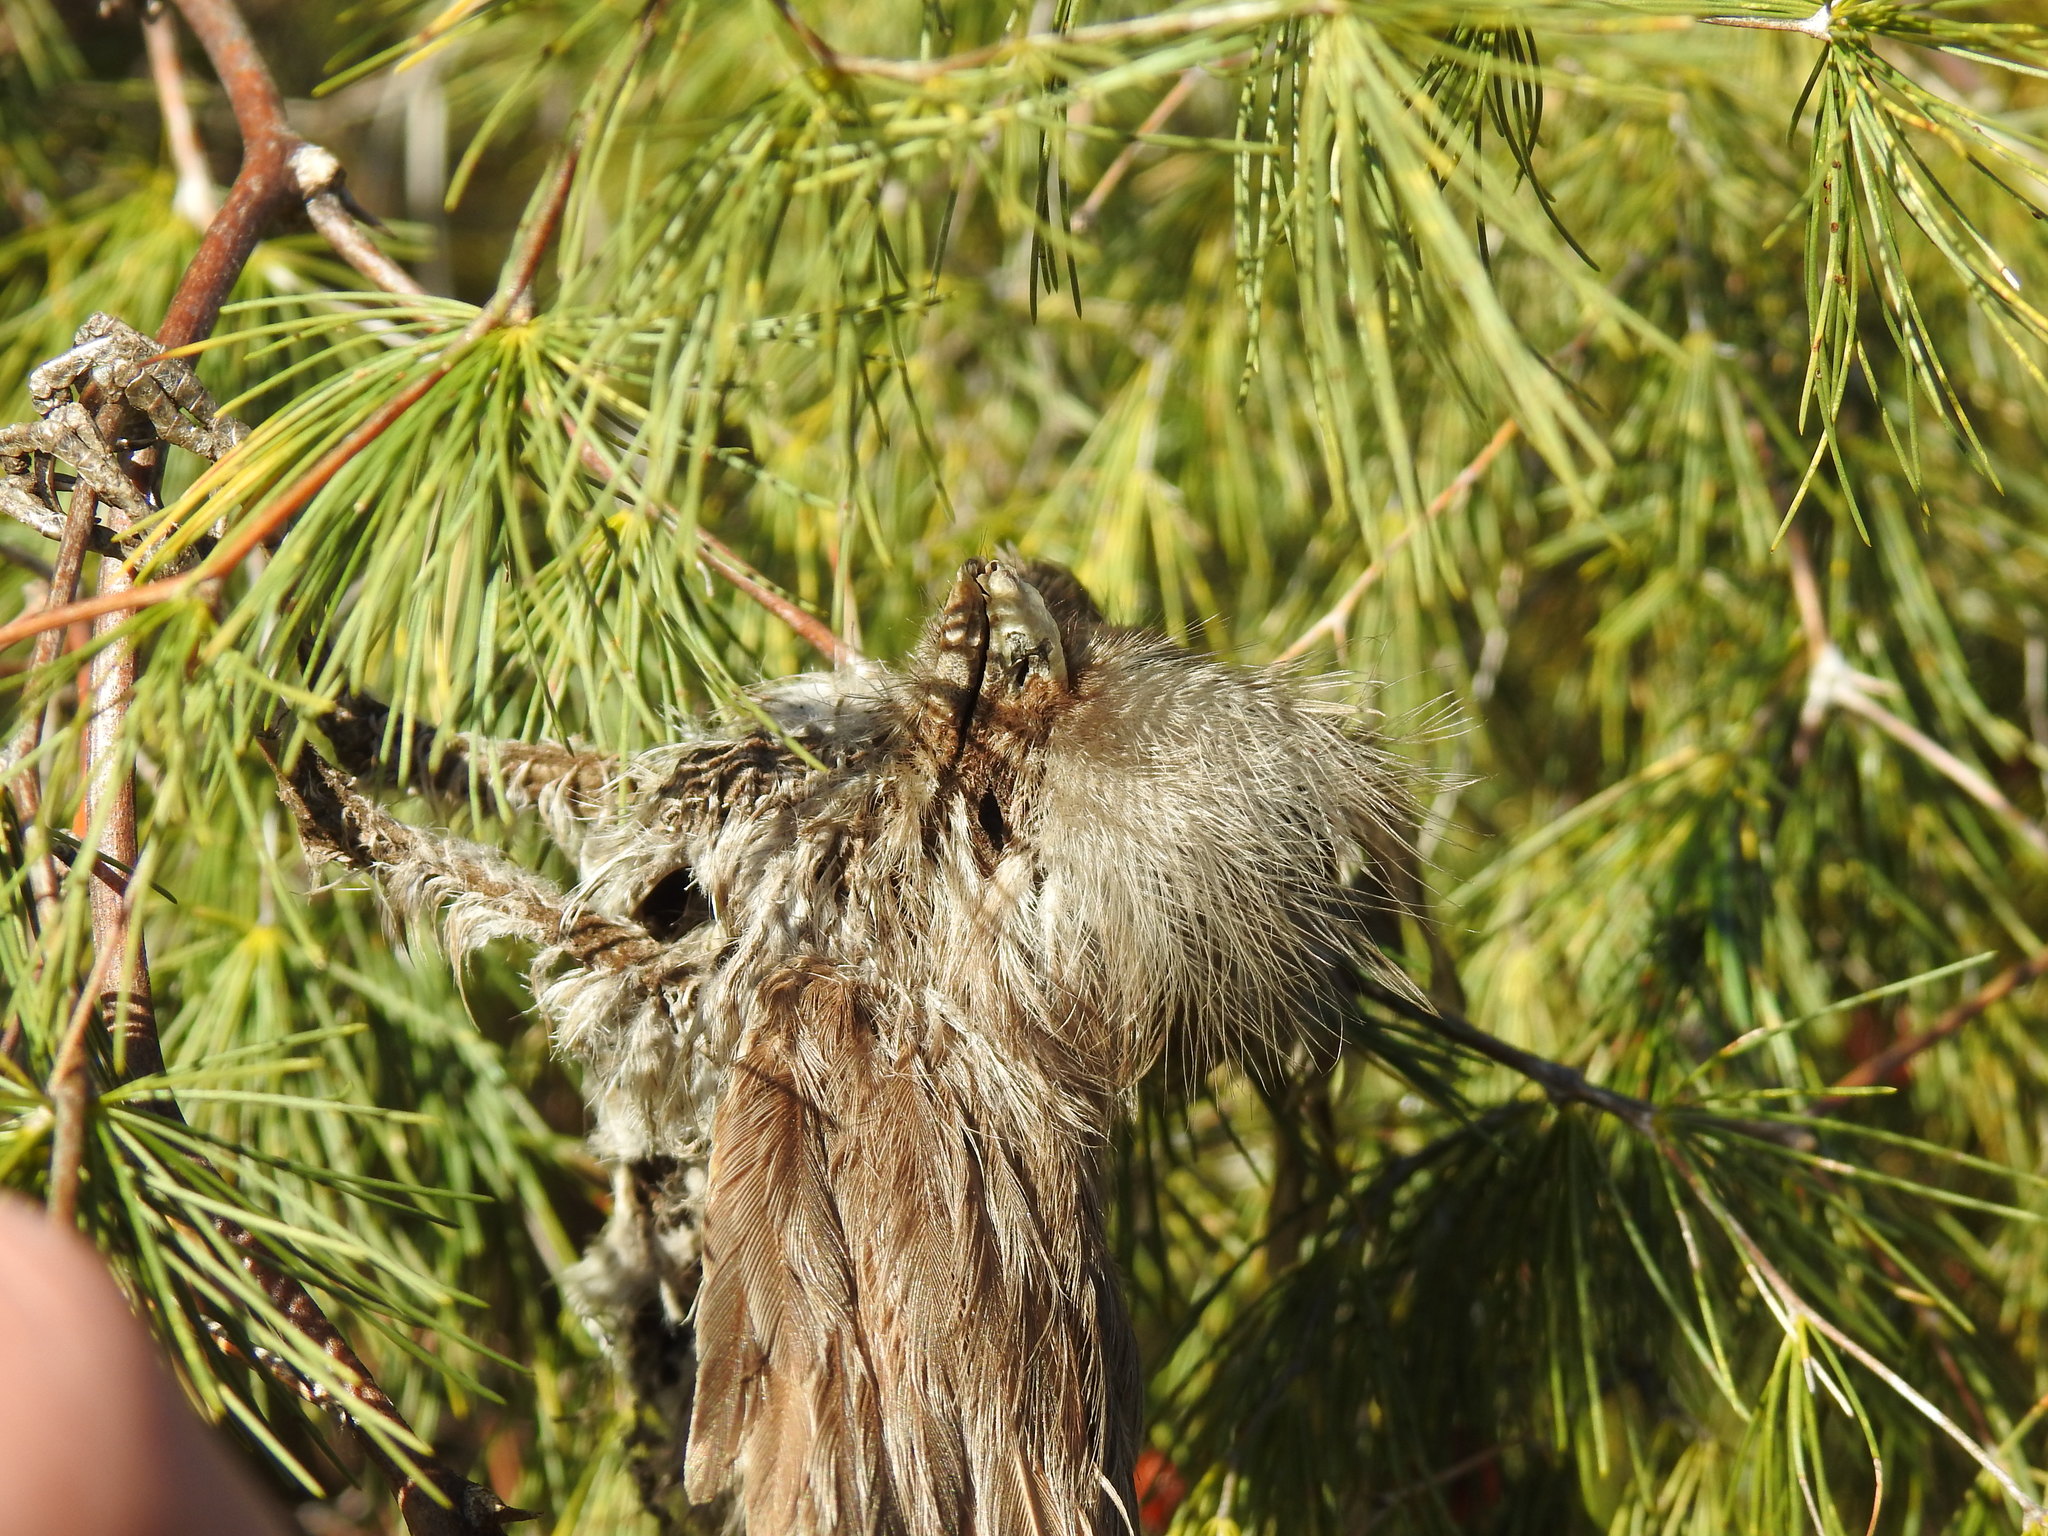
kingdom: Animalia
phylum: Chordata
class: Aves
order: Coliiformes
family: Coliidae
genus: Colius
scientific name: Colius striatus
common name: Speckled mousebird
